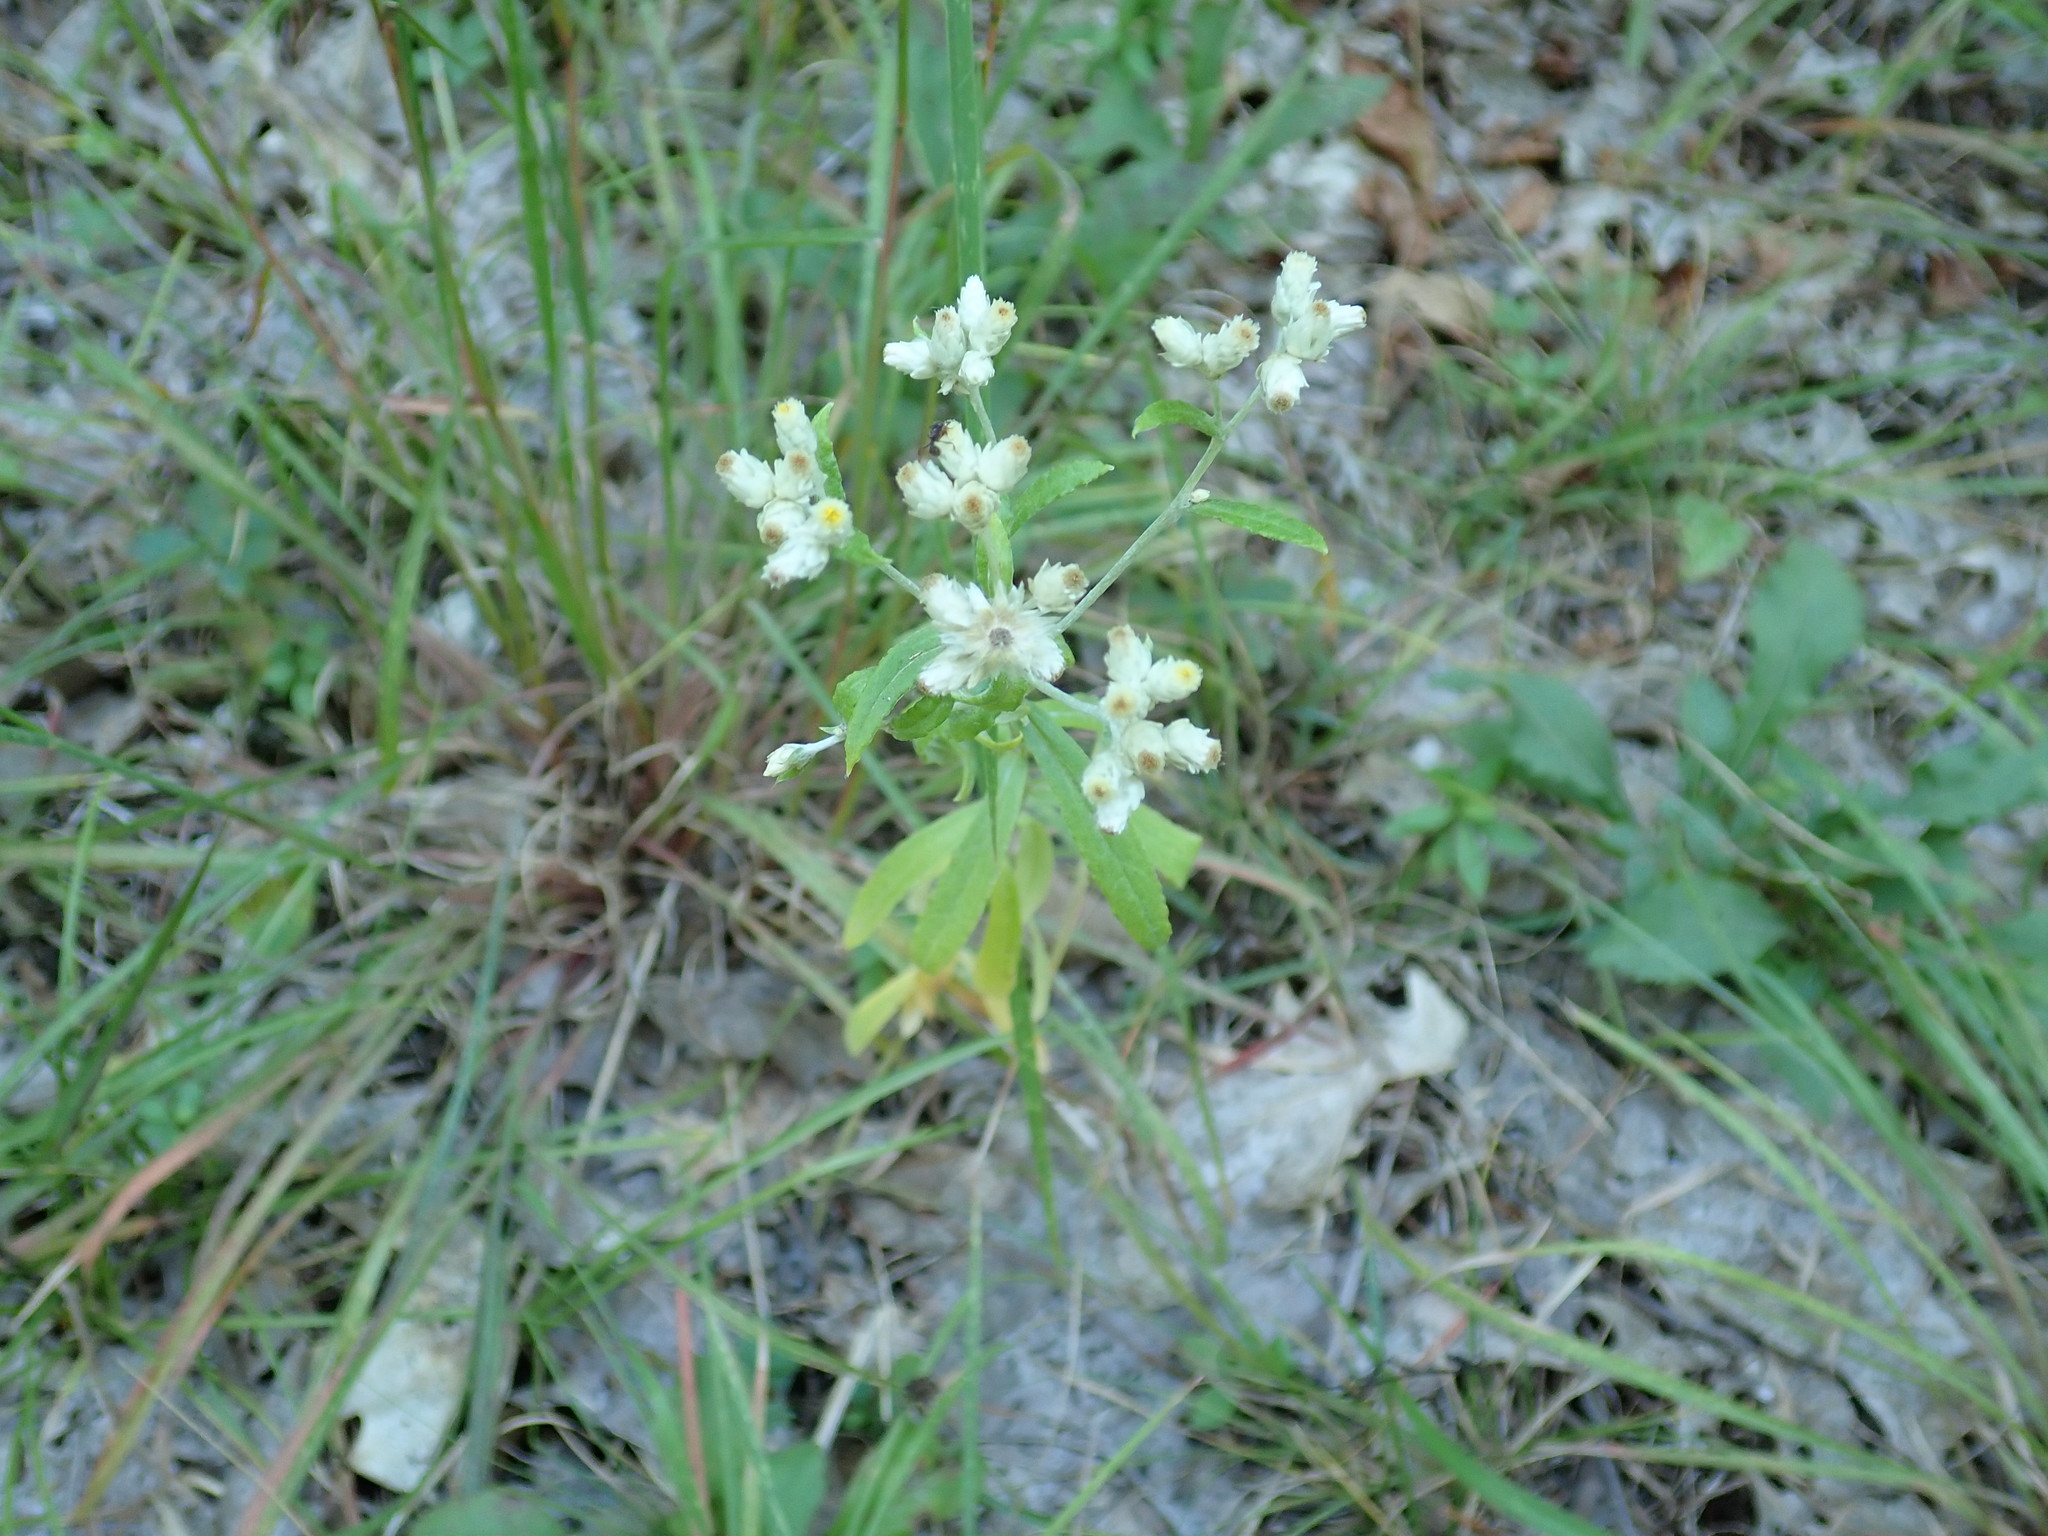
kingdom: Plantae
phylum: Tracheophyta
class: Magnoliopsida
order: Asterales
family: Asteraceae
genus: Pseudognaphalium
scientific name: Pseudognaphalium obtusifolium
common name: Eastern rabbit-tobacco
